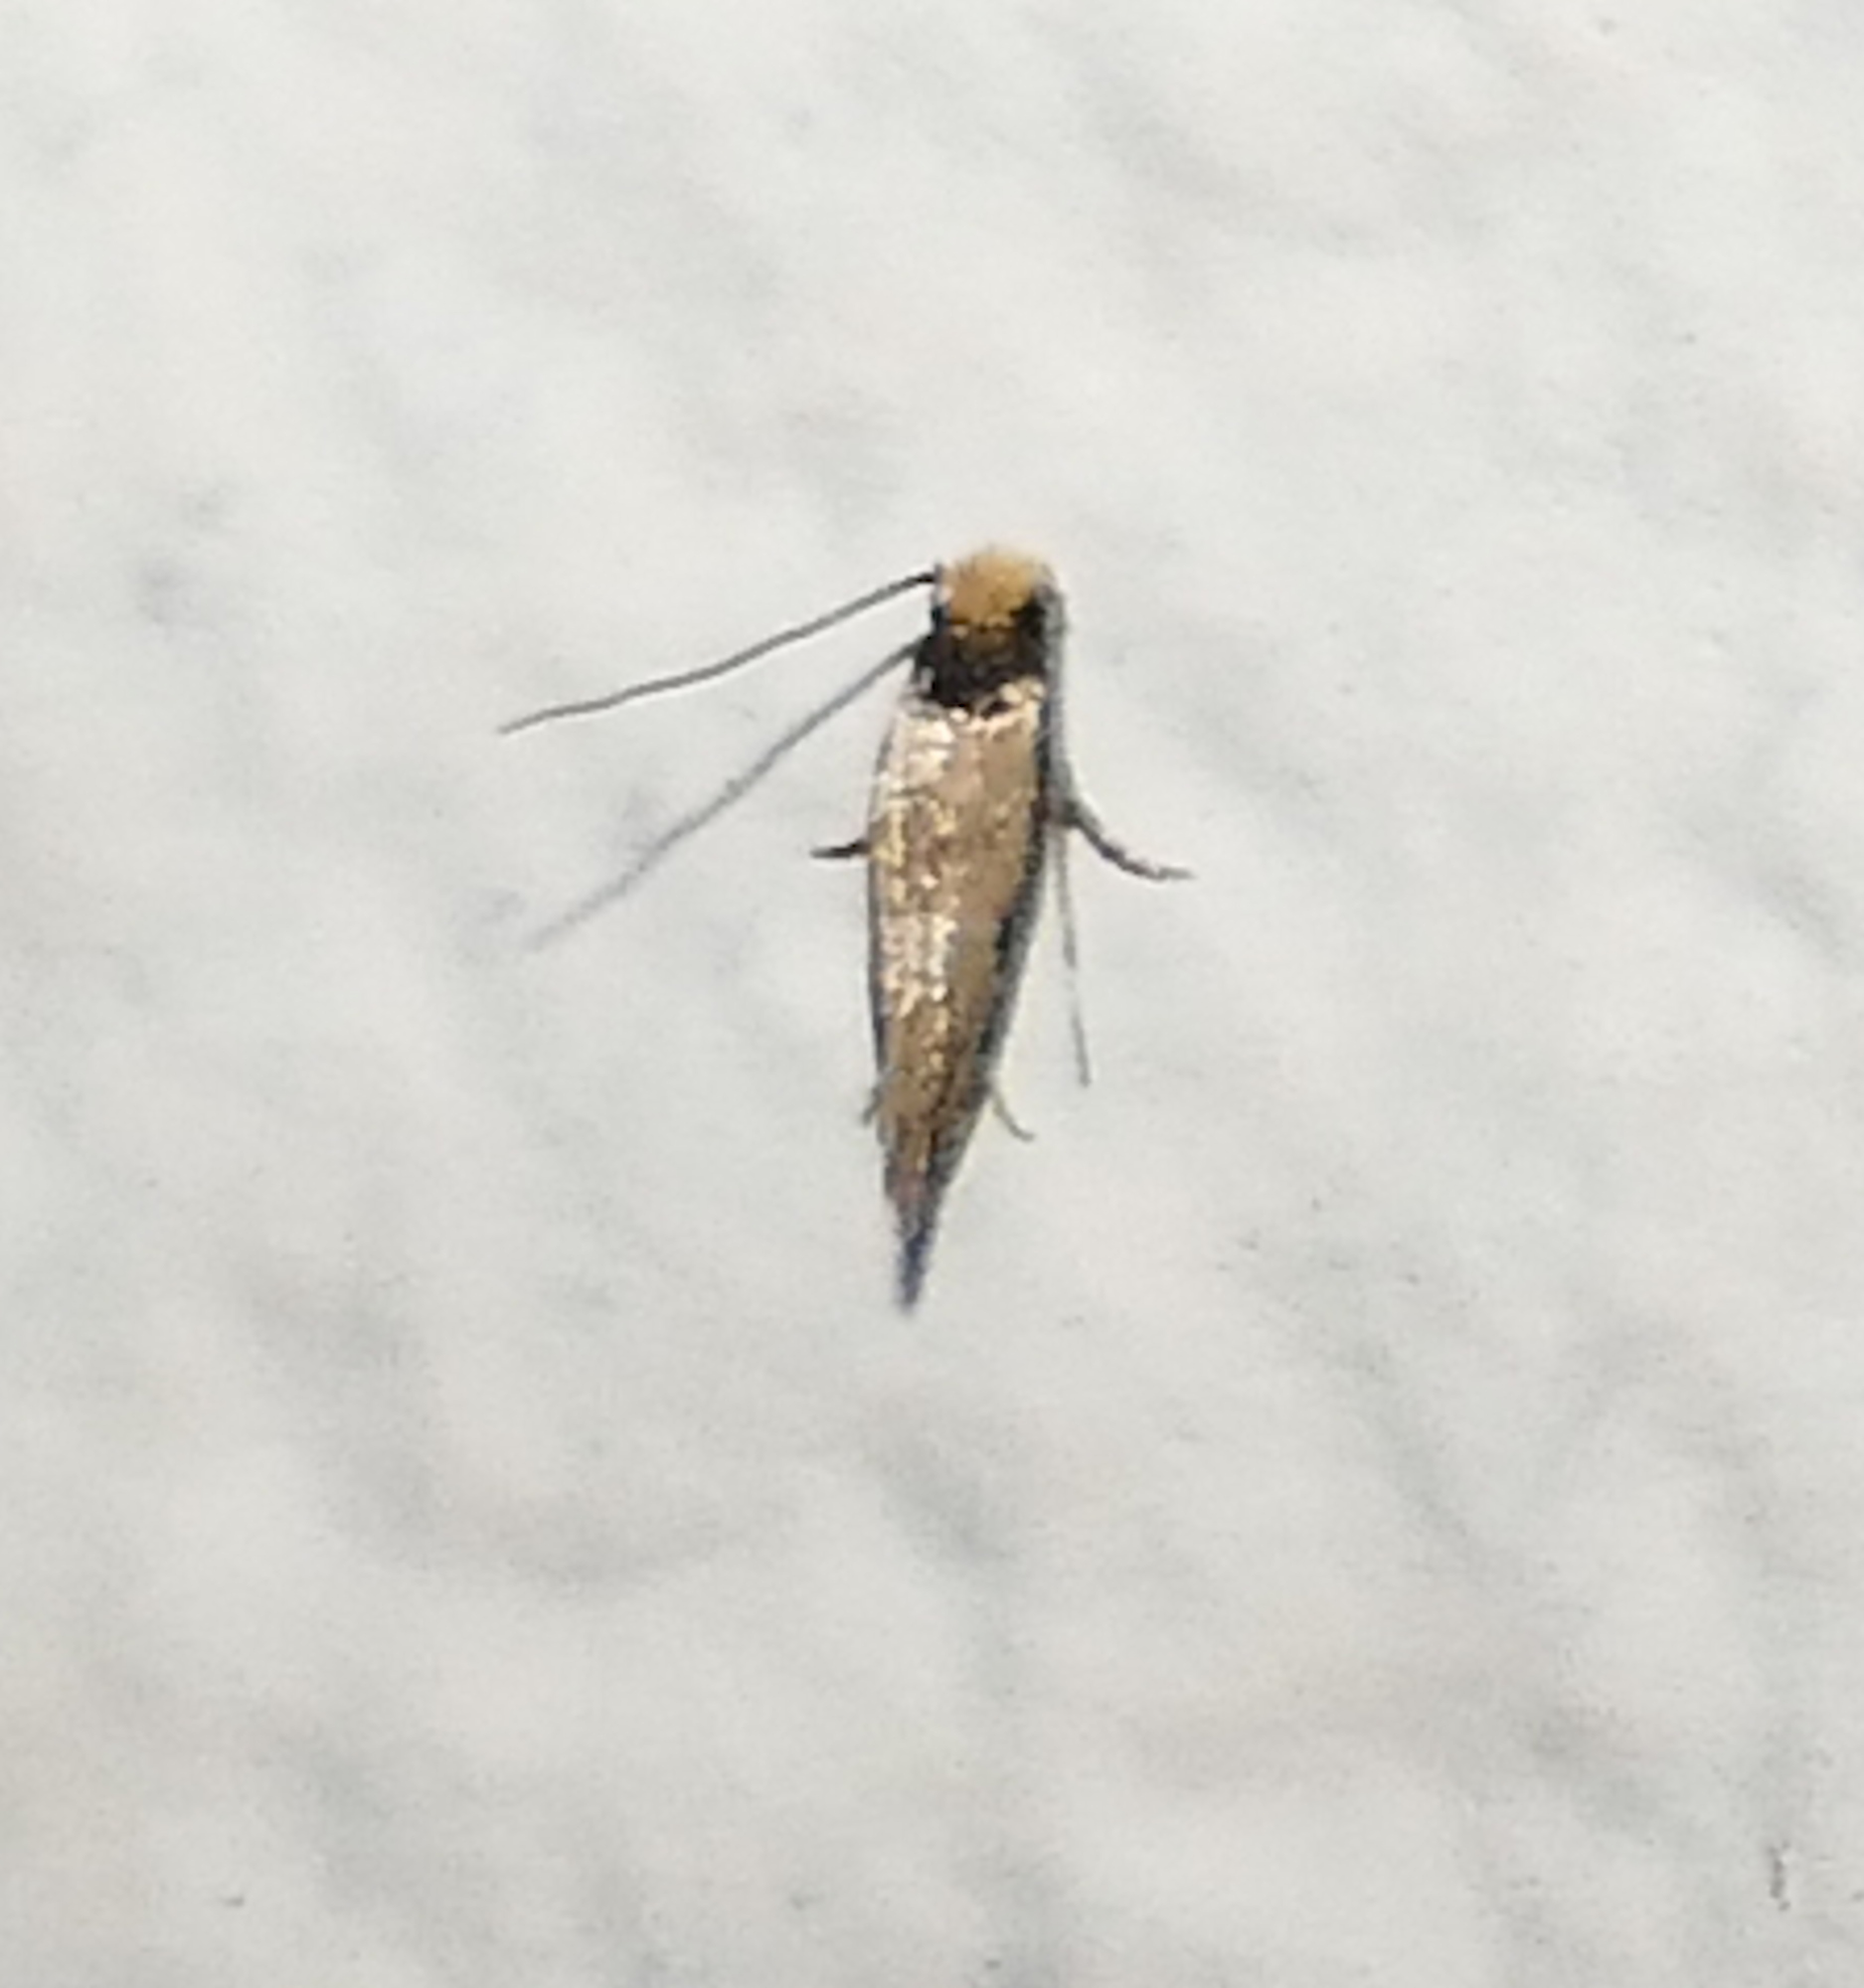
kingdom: Animalia
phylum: Arthropoda
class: Insecta
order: Lepidoptera
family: Meessiidae
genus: Homostinea
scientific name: Homostinea curviliniella
